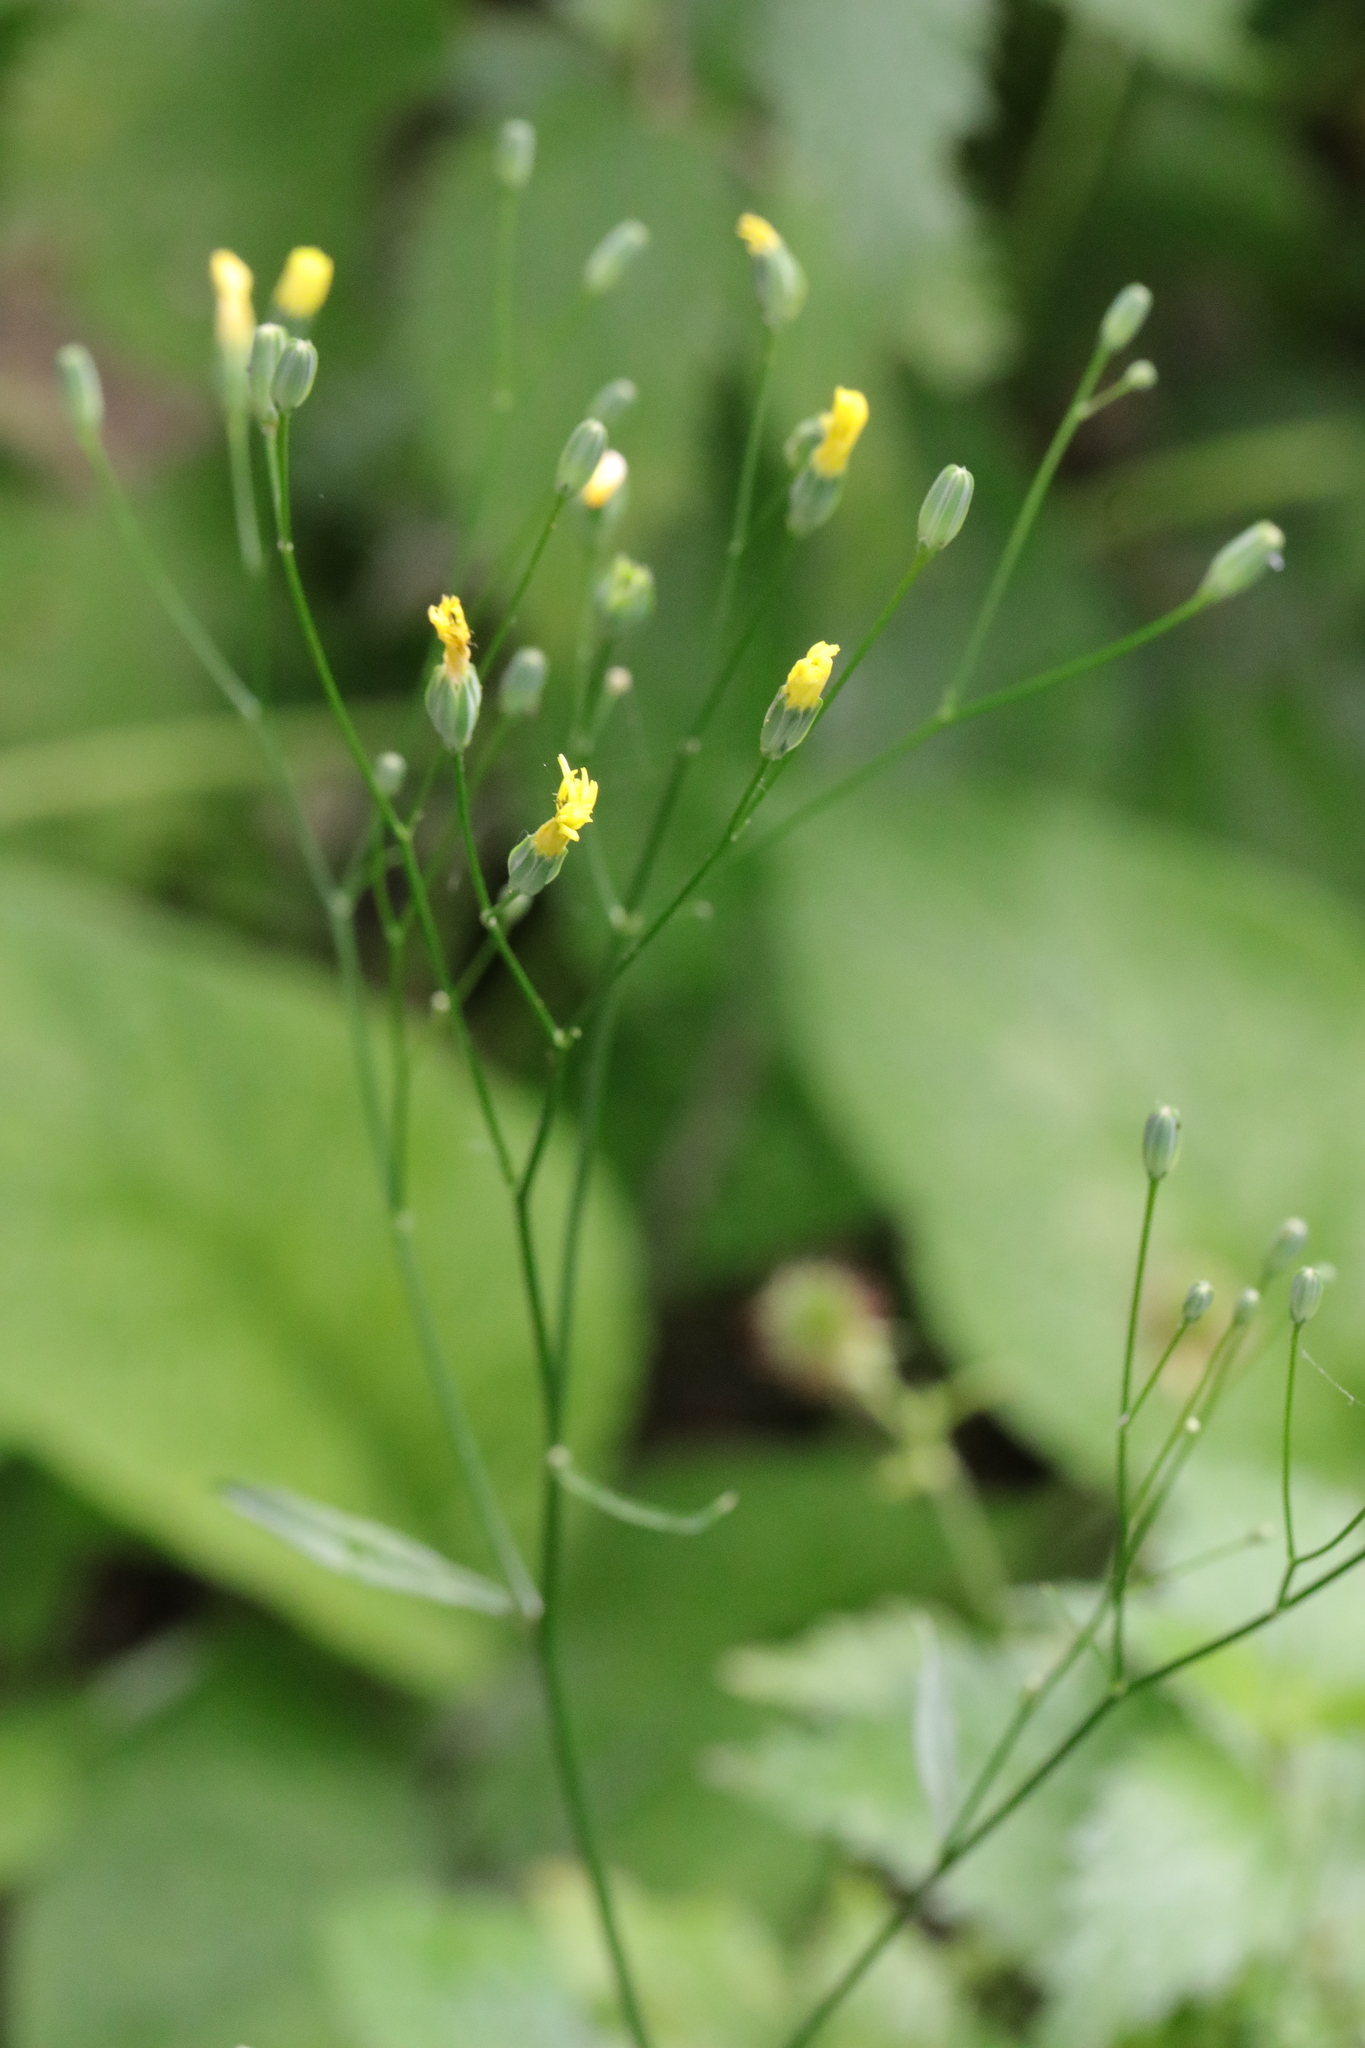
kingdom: Plantae
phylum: Tracheophyta
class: Magnoliopsida
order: Asterales
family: Asteraceae
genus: Lapsana
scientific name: Lapsana communis
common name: Nipplewort
